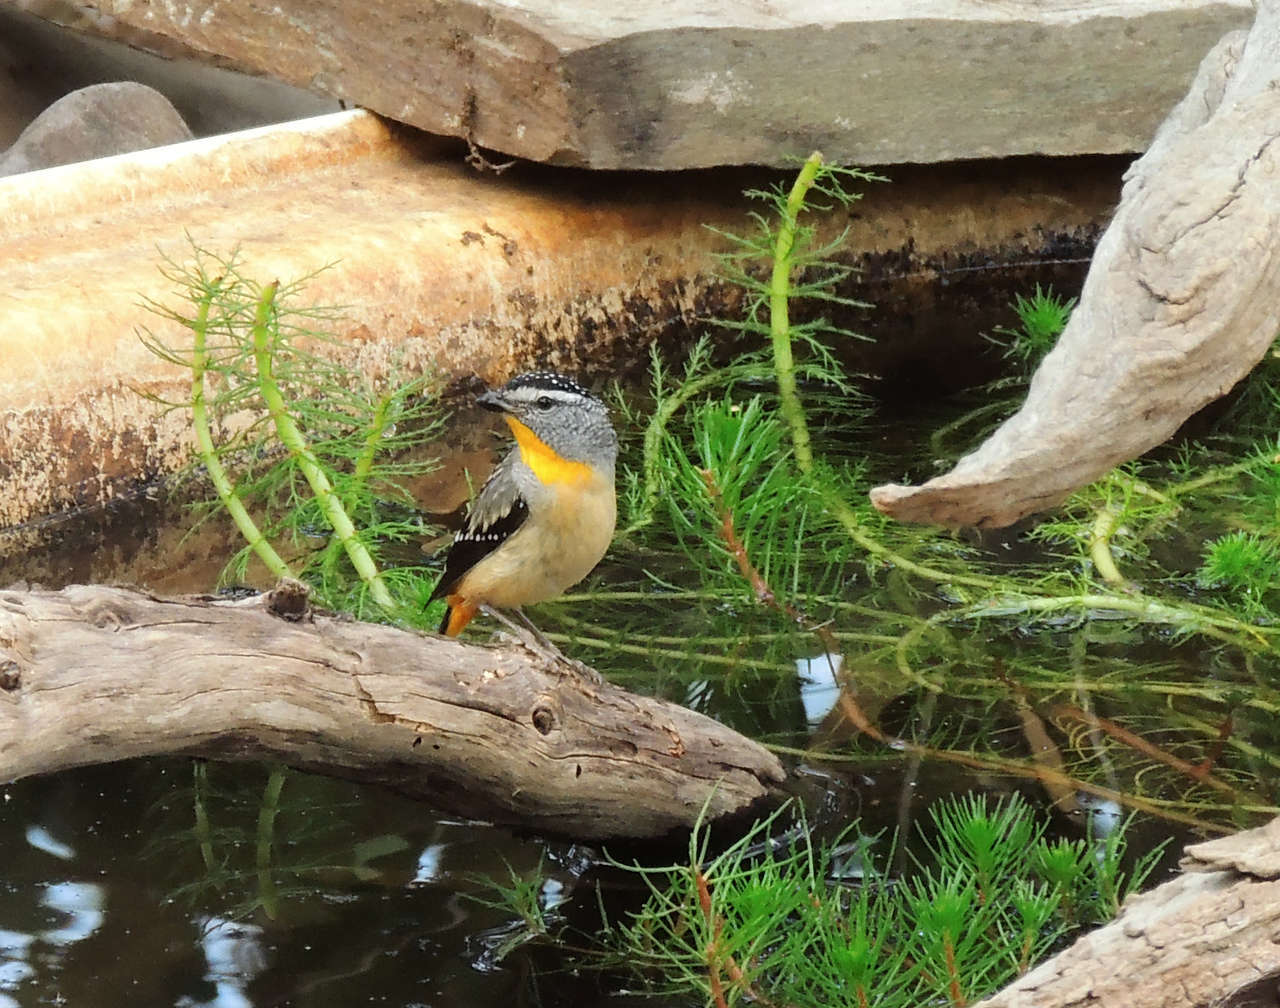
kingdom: Animalia
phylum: Chordata
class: Aves
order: Passeriformes
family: Pardalotidae
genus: Pardalotus
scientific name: Pardalotus punctatus
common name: Spotted pardalote
